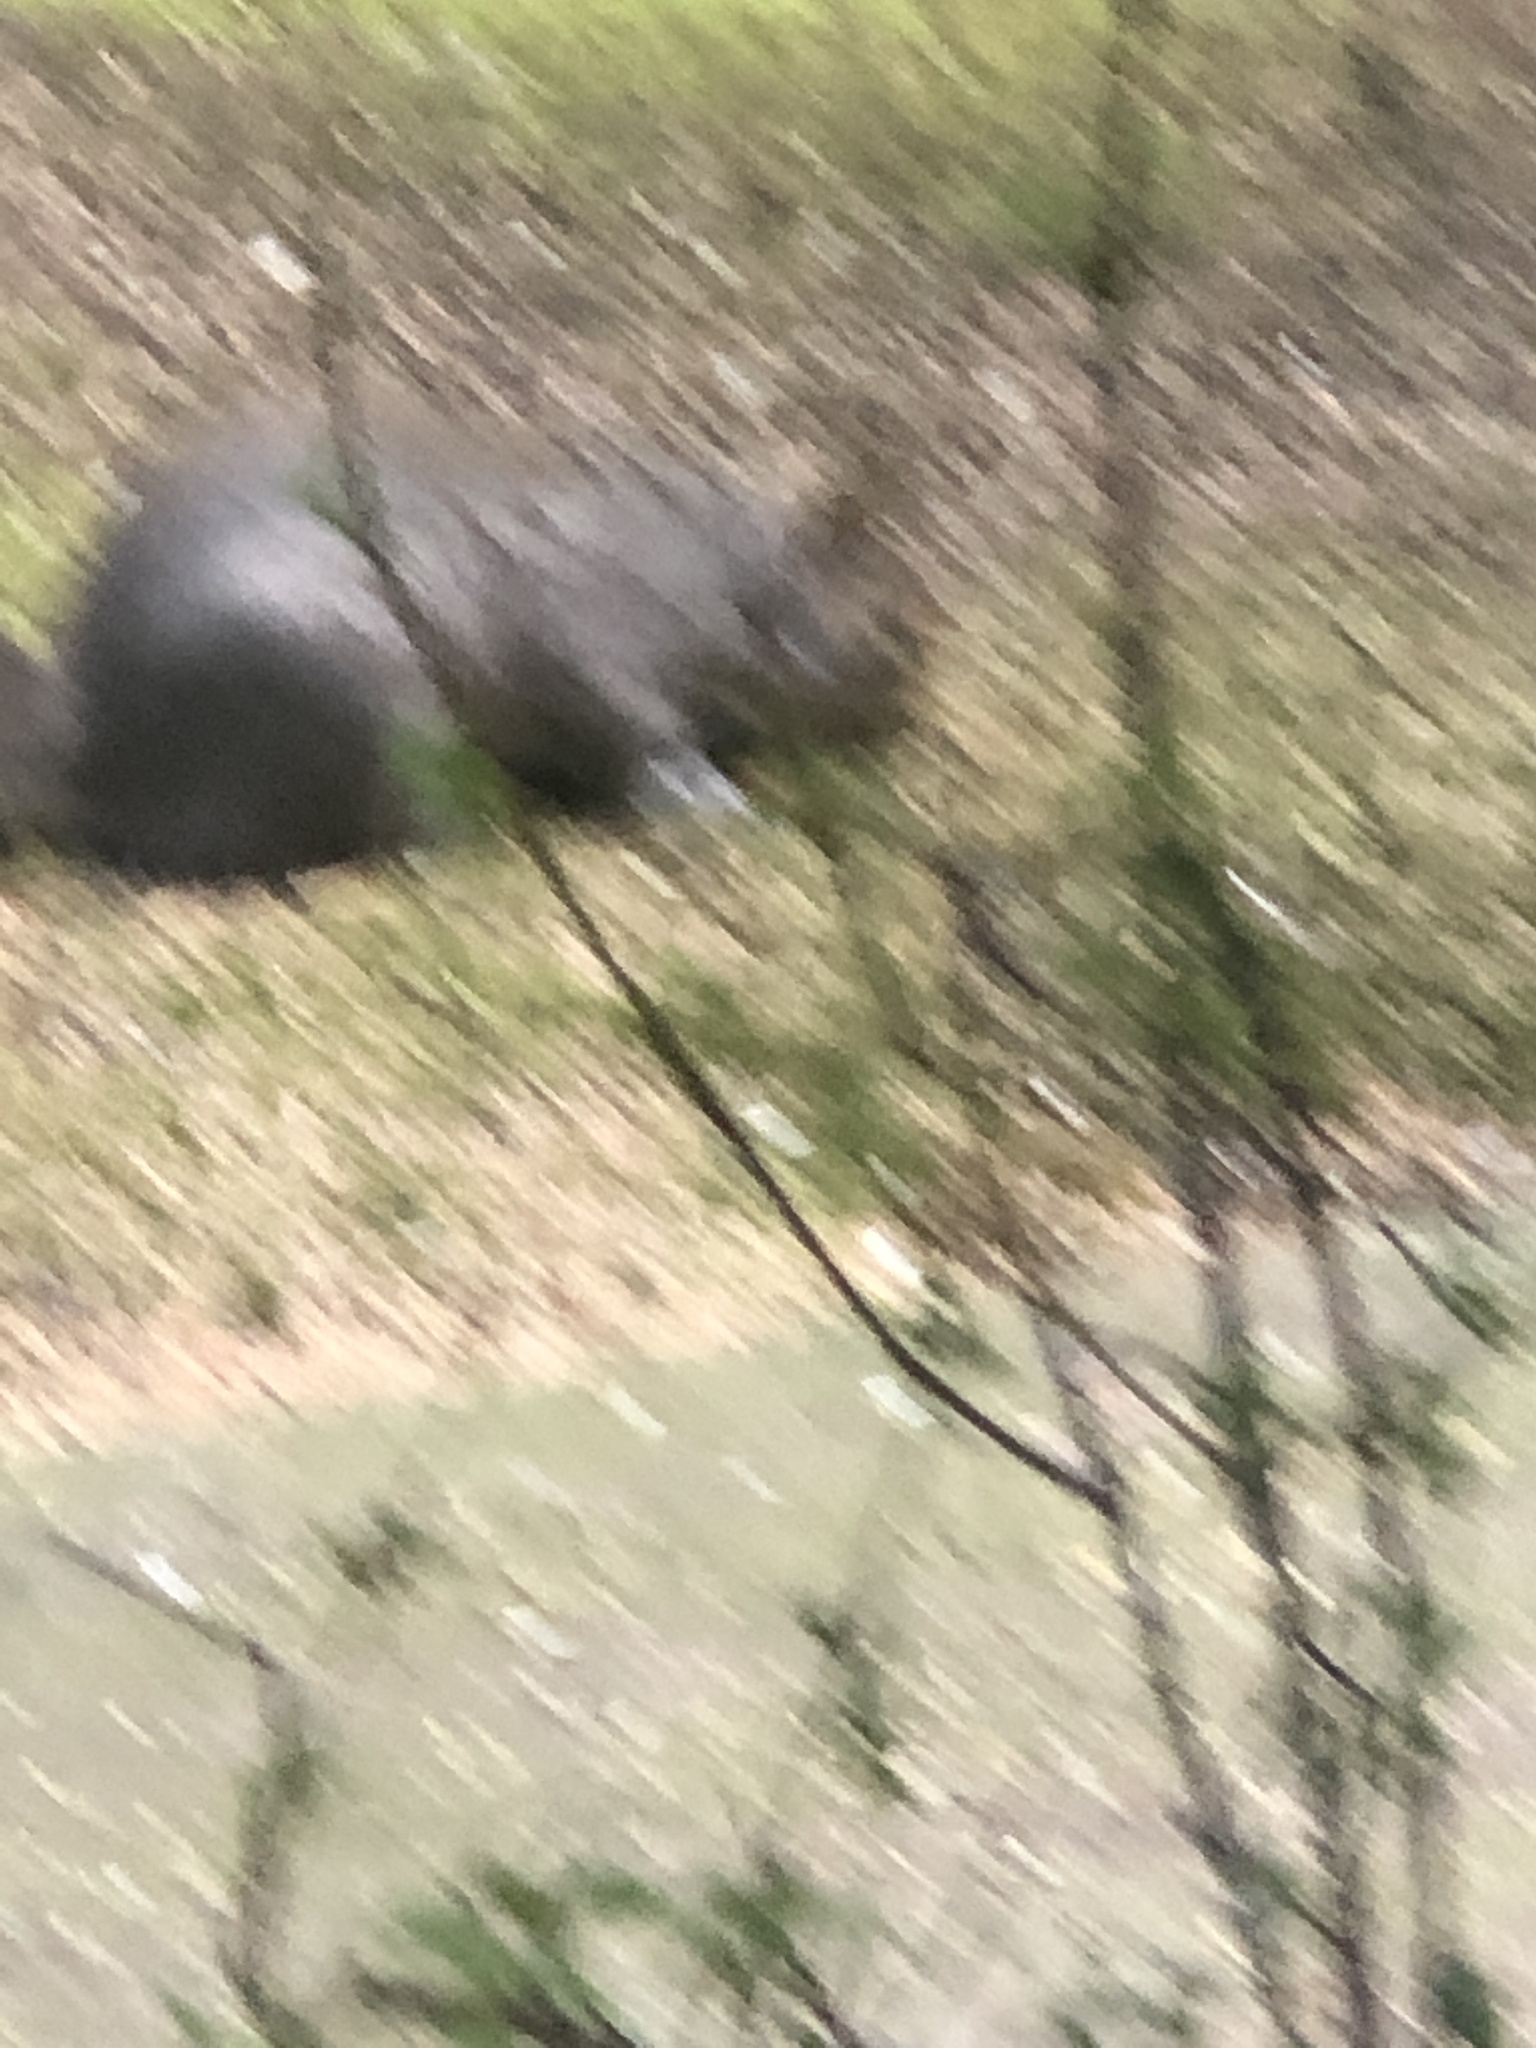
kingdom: Animalia
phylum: Chordata
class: Mammalia
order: Rodentia
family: Sciuridae
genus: Sciurus
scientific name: Sciurus carolinensis
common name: Eastern gray squirrel
